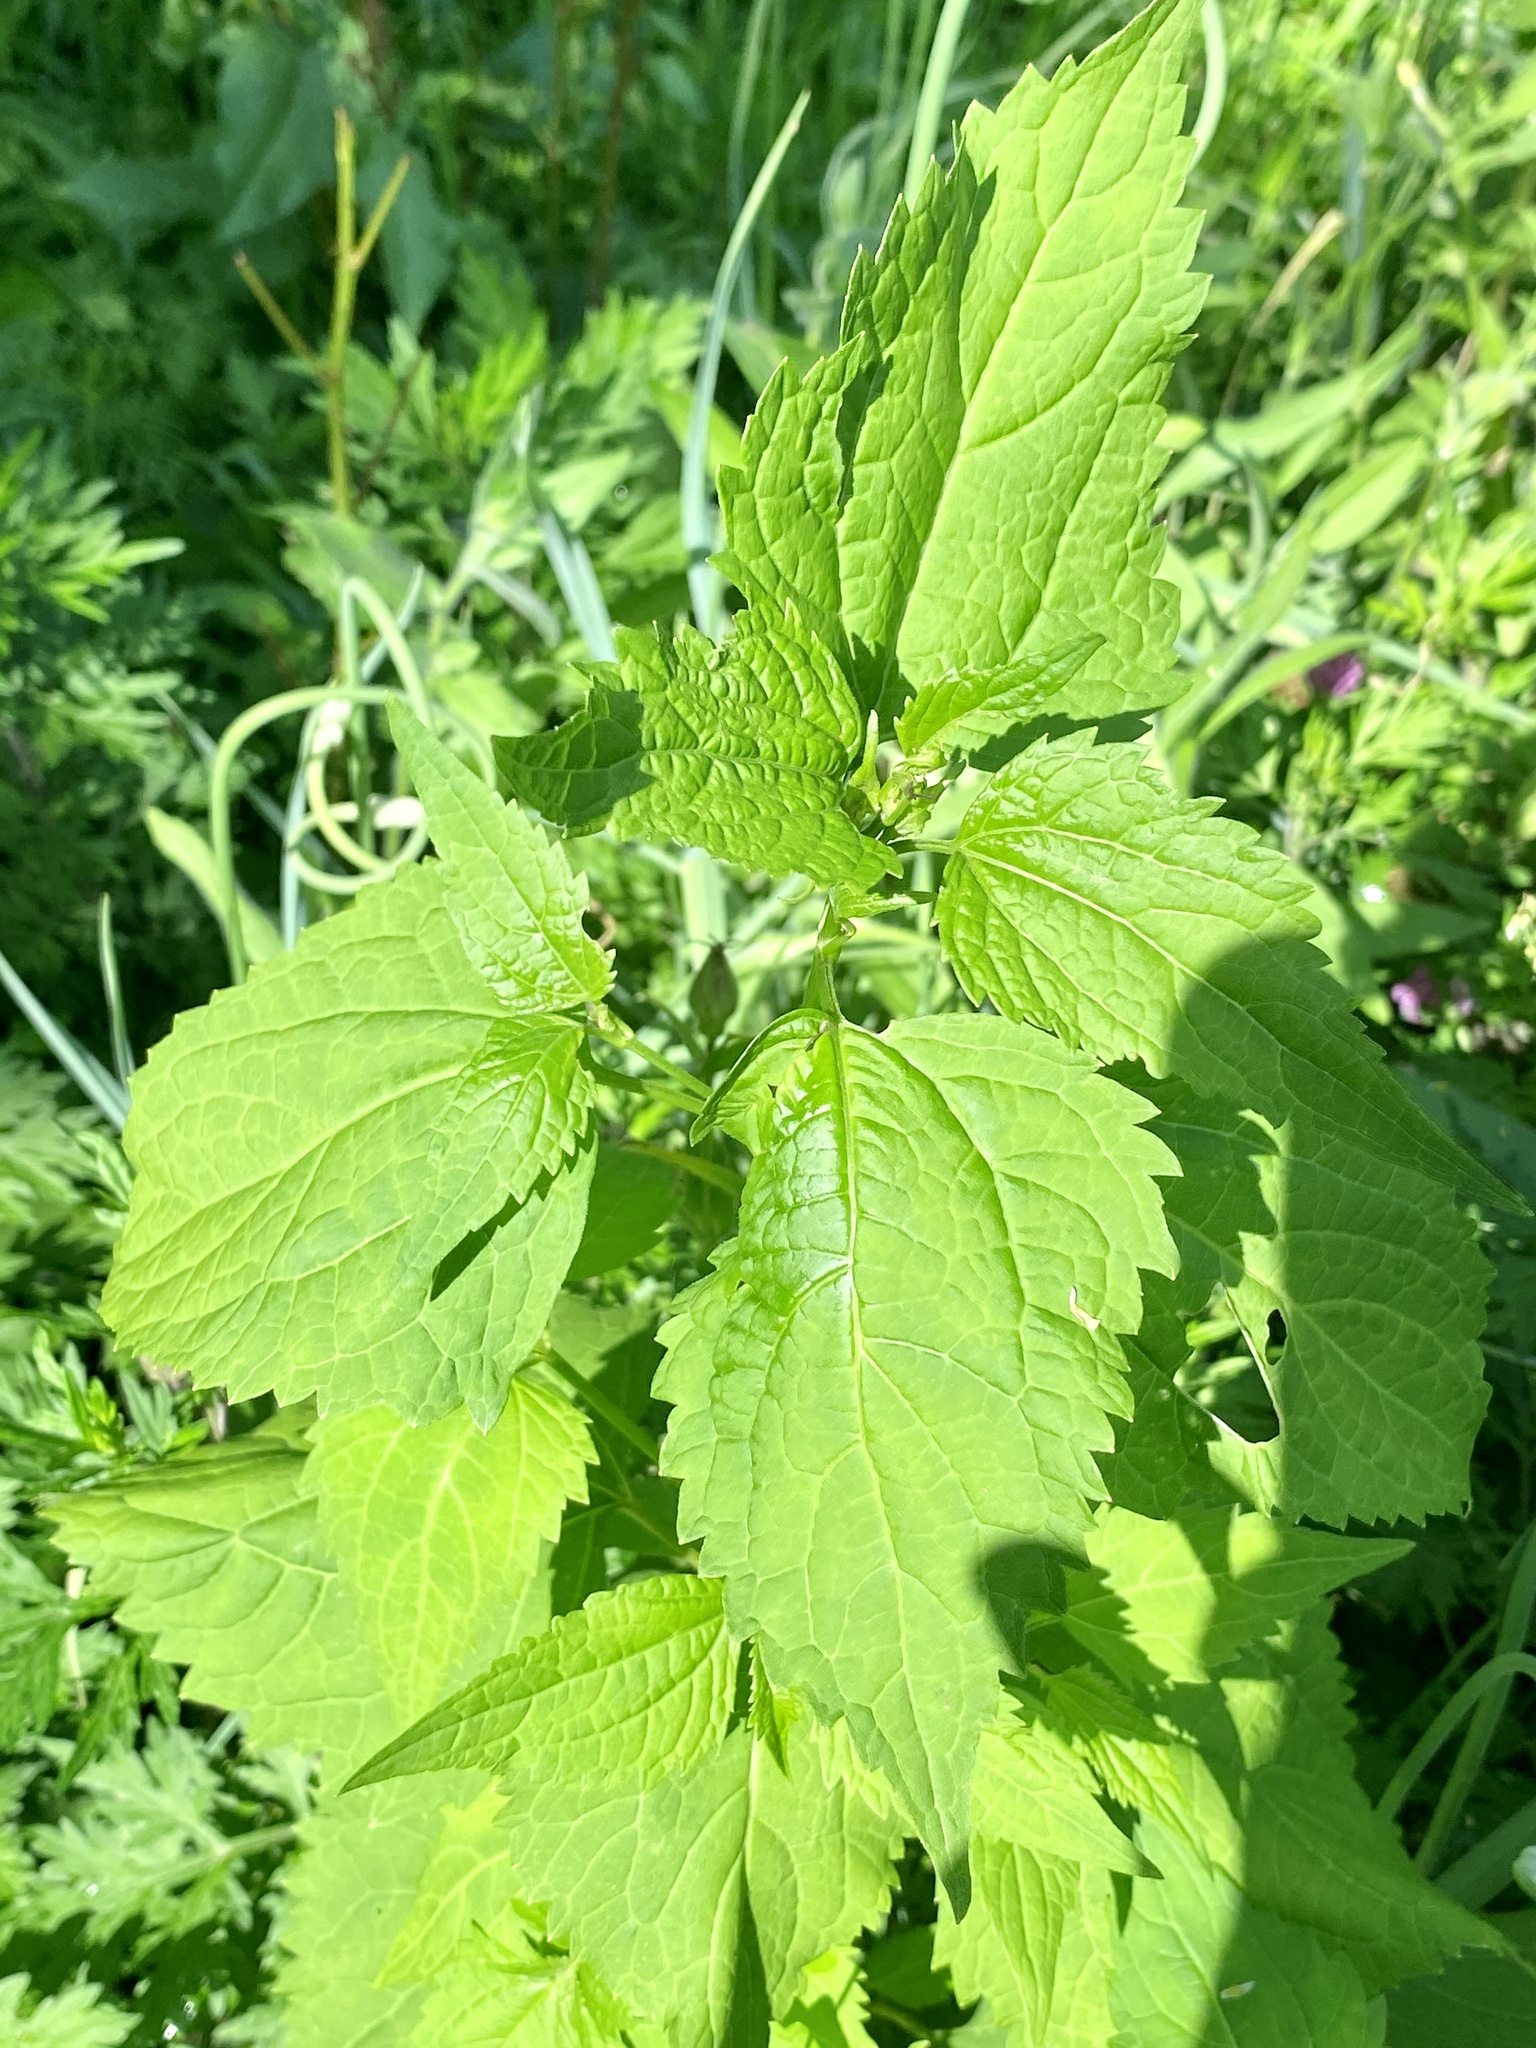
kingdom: Plantae
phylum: Tracheophyta
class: Magnoliopsida
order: Asterales
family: Asteraceae
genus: Ageratina
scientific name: Ageratina altissima
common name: White snakeroot
